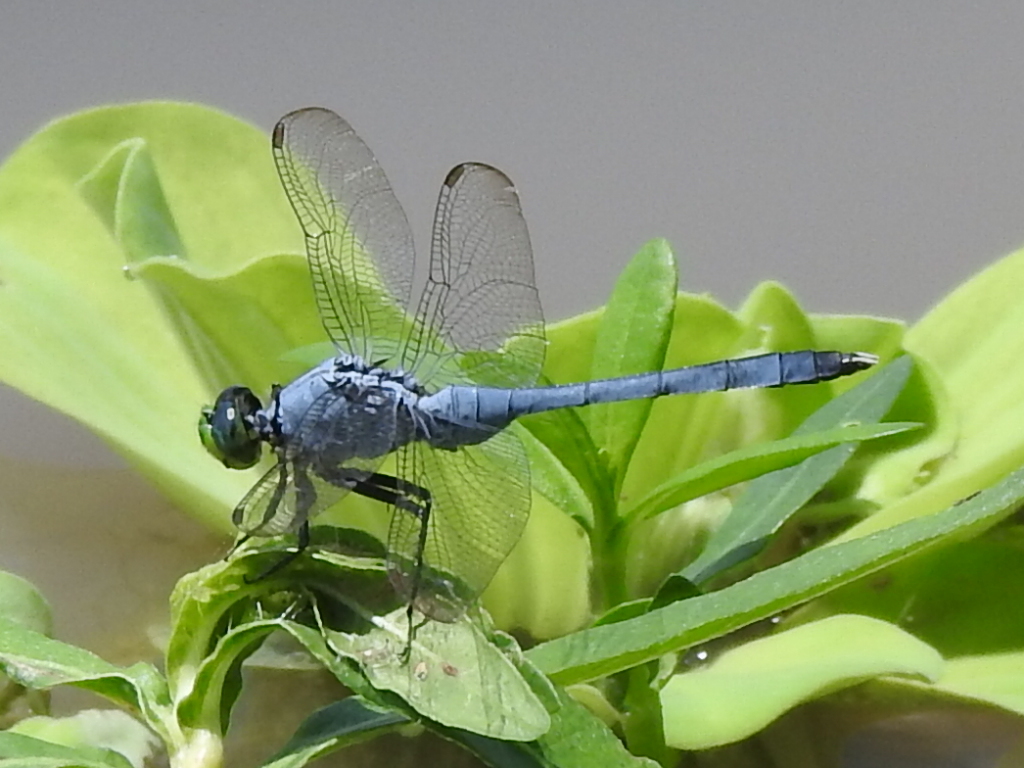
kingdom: Animalia
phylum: Arthropoda
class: Insecta
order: Odonata
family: Libellulidae
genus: Erythemis
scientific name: Erythemis simplicicollis
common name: Eastern pondhawk
